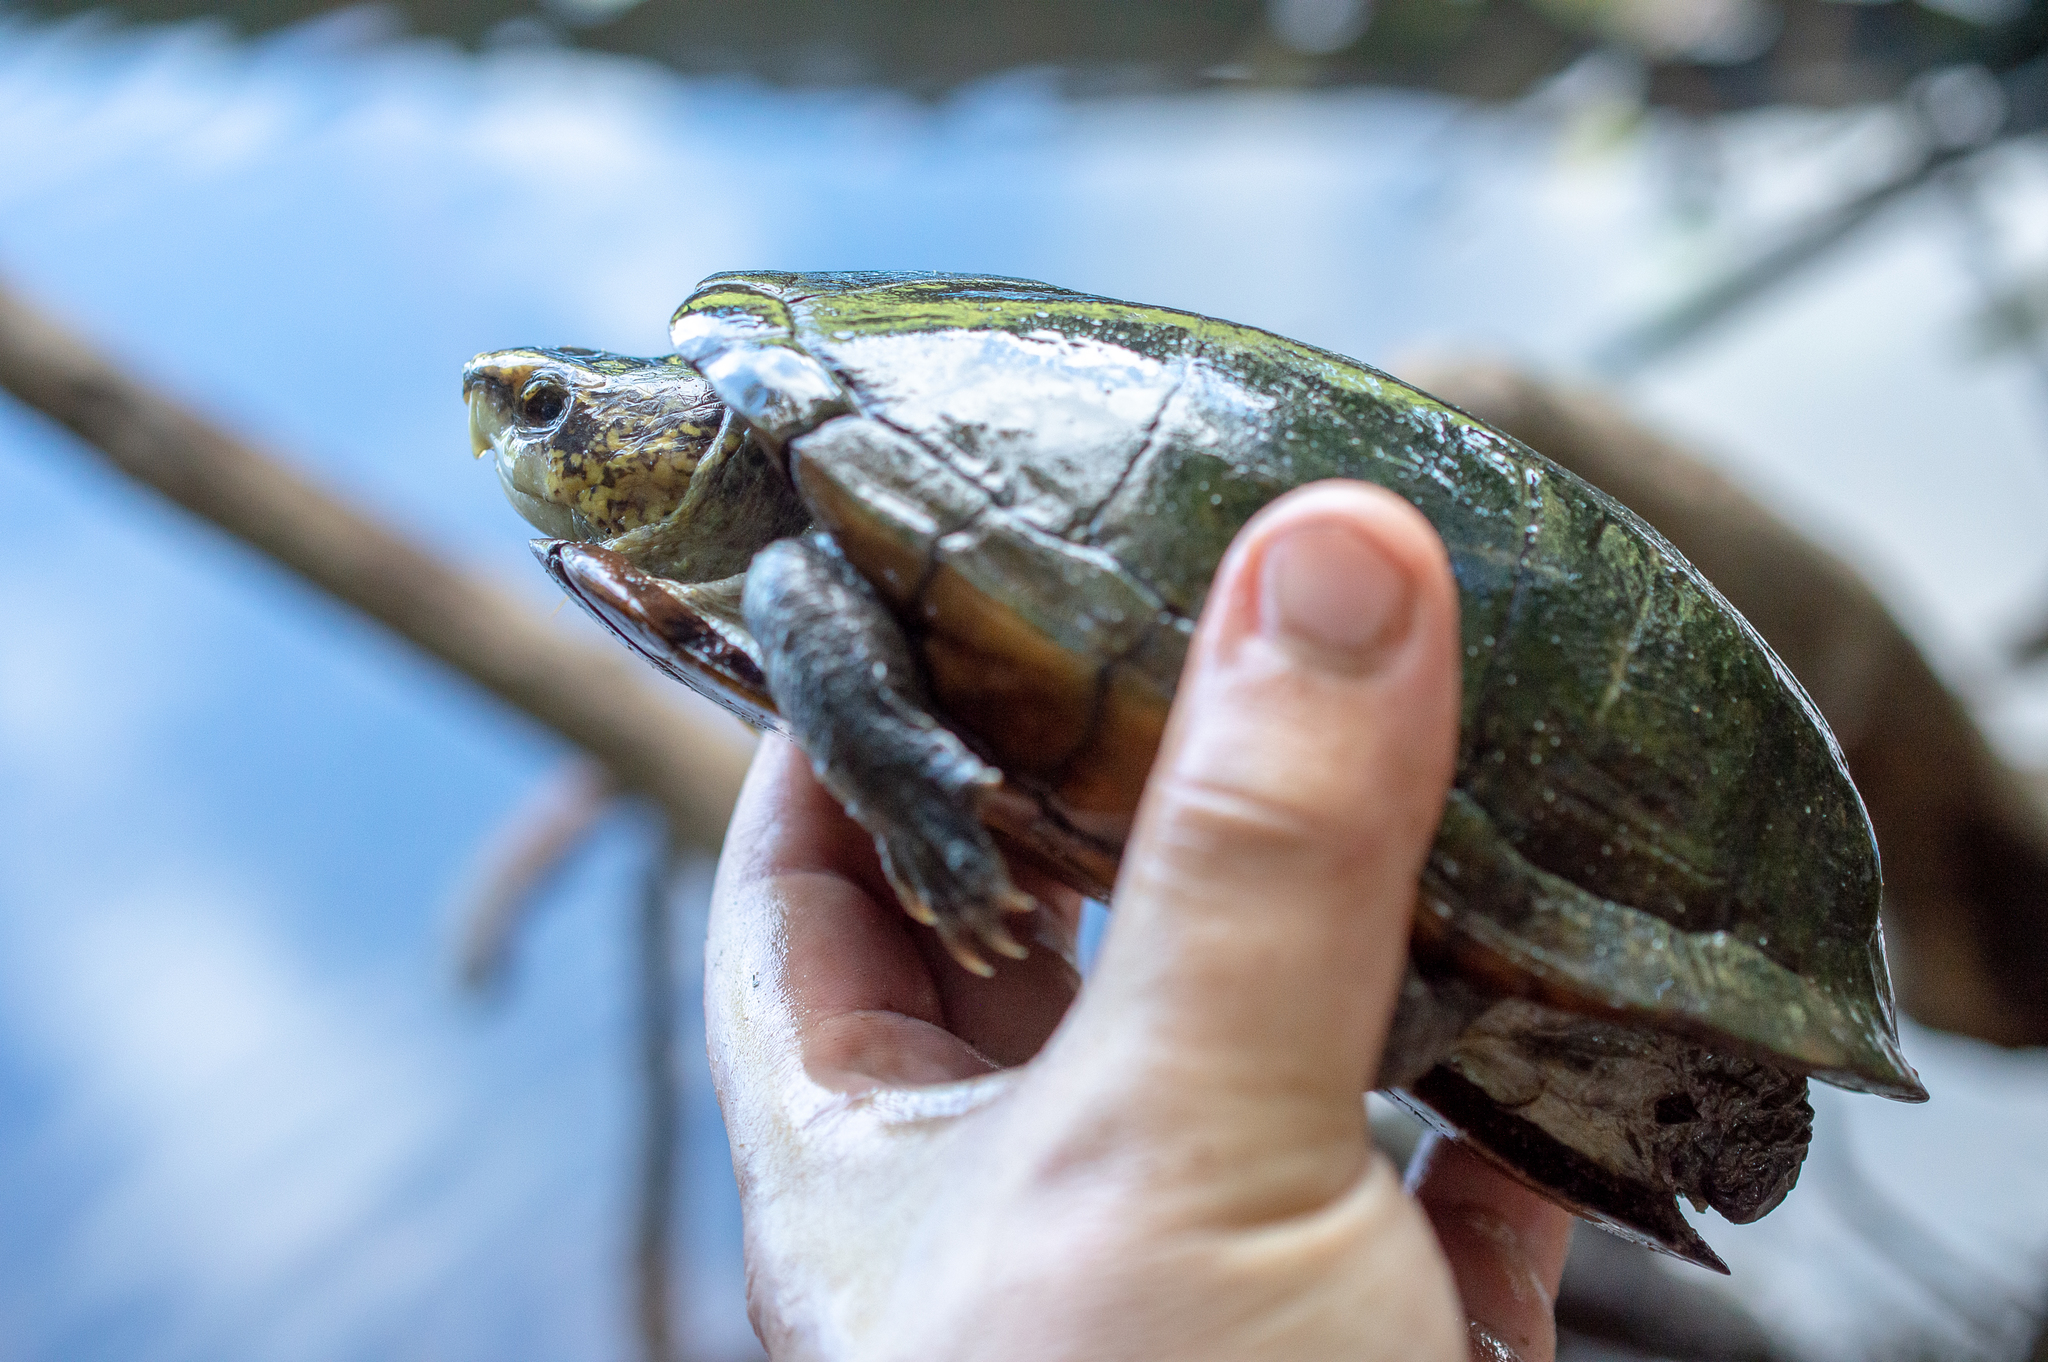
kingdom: Animalia
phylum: Chordata
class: Testudines
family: Kinosternidae
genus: Kinosternon
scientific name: Kinosternon scorpioides
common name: Scorpion mud turtle
